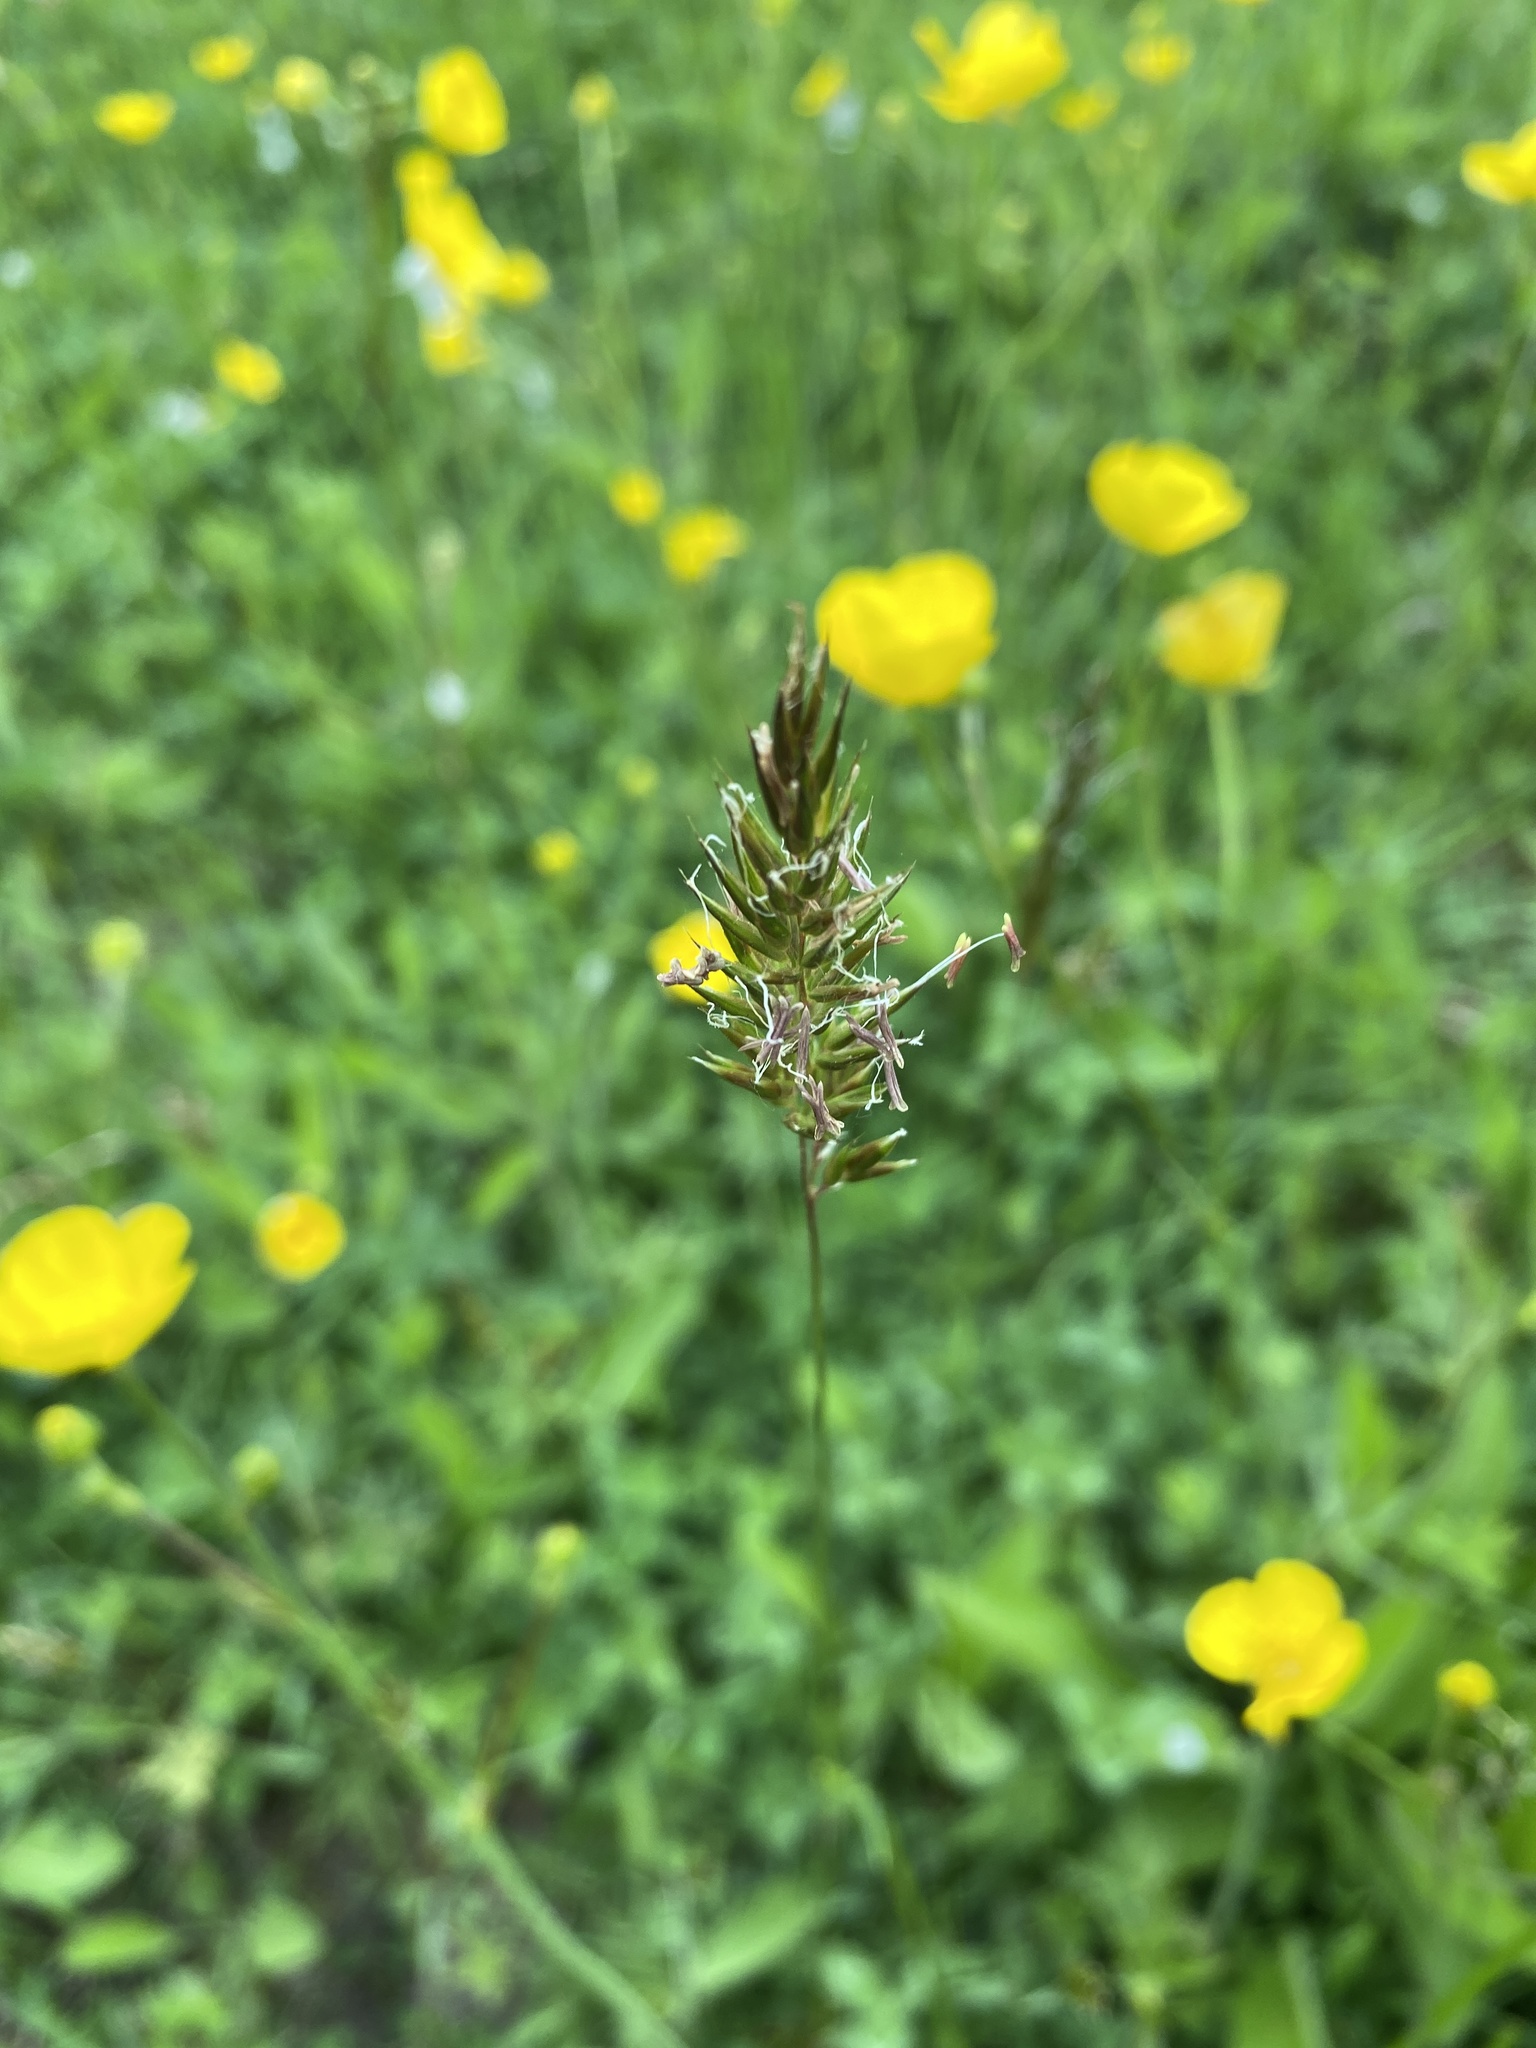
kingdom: Plantae
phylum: Tracheophyta
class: Liliopsida
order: Poales
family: Poaceae
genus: Anthoxanthum
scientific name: Anthoxanthum odoratum
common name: Sweet vernalgrass
